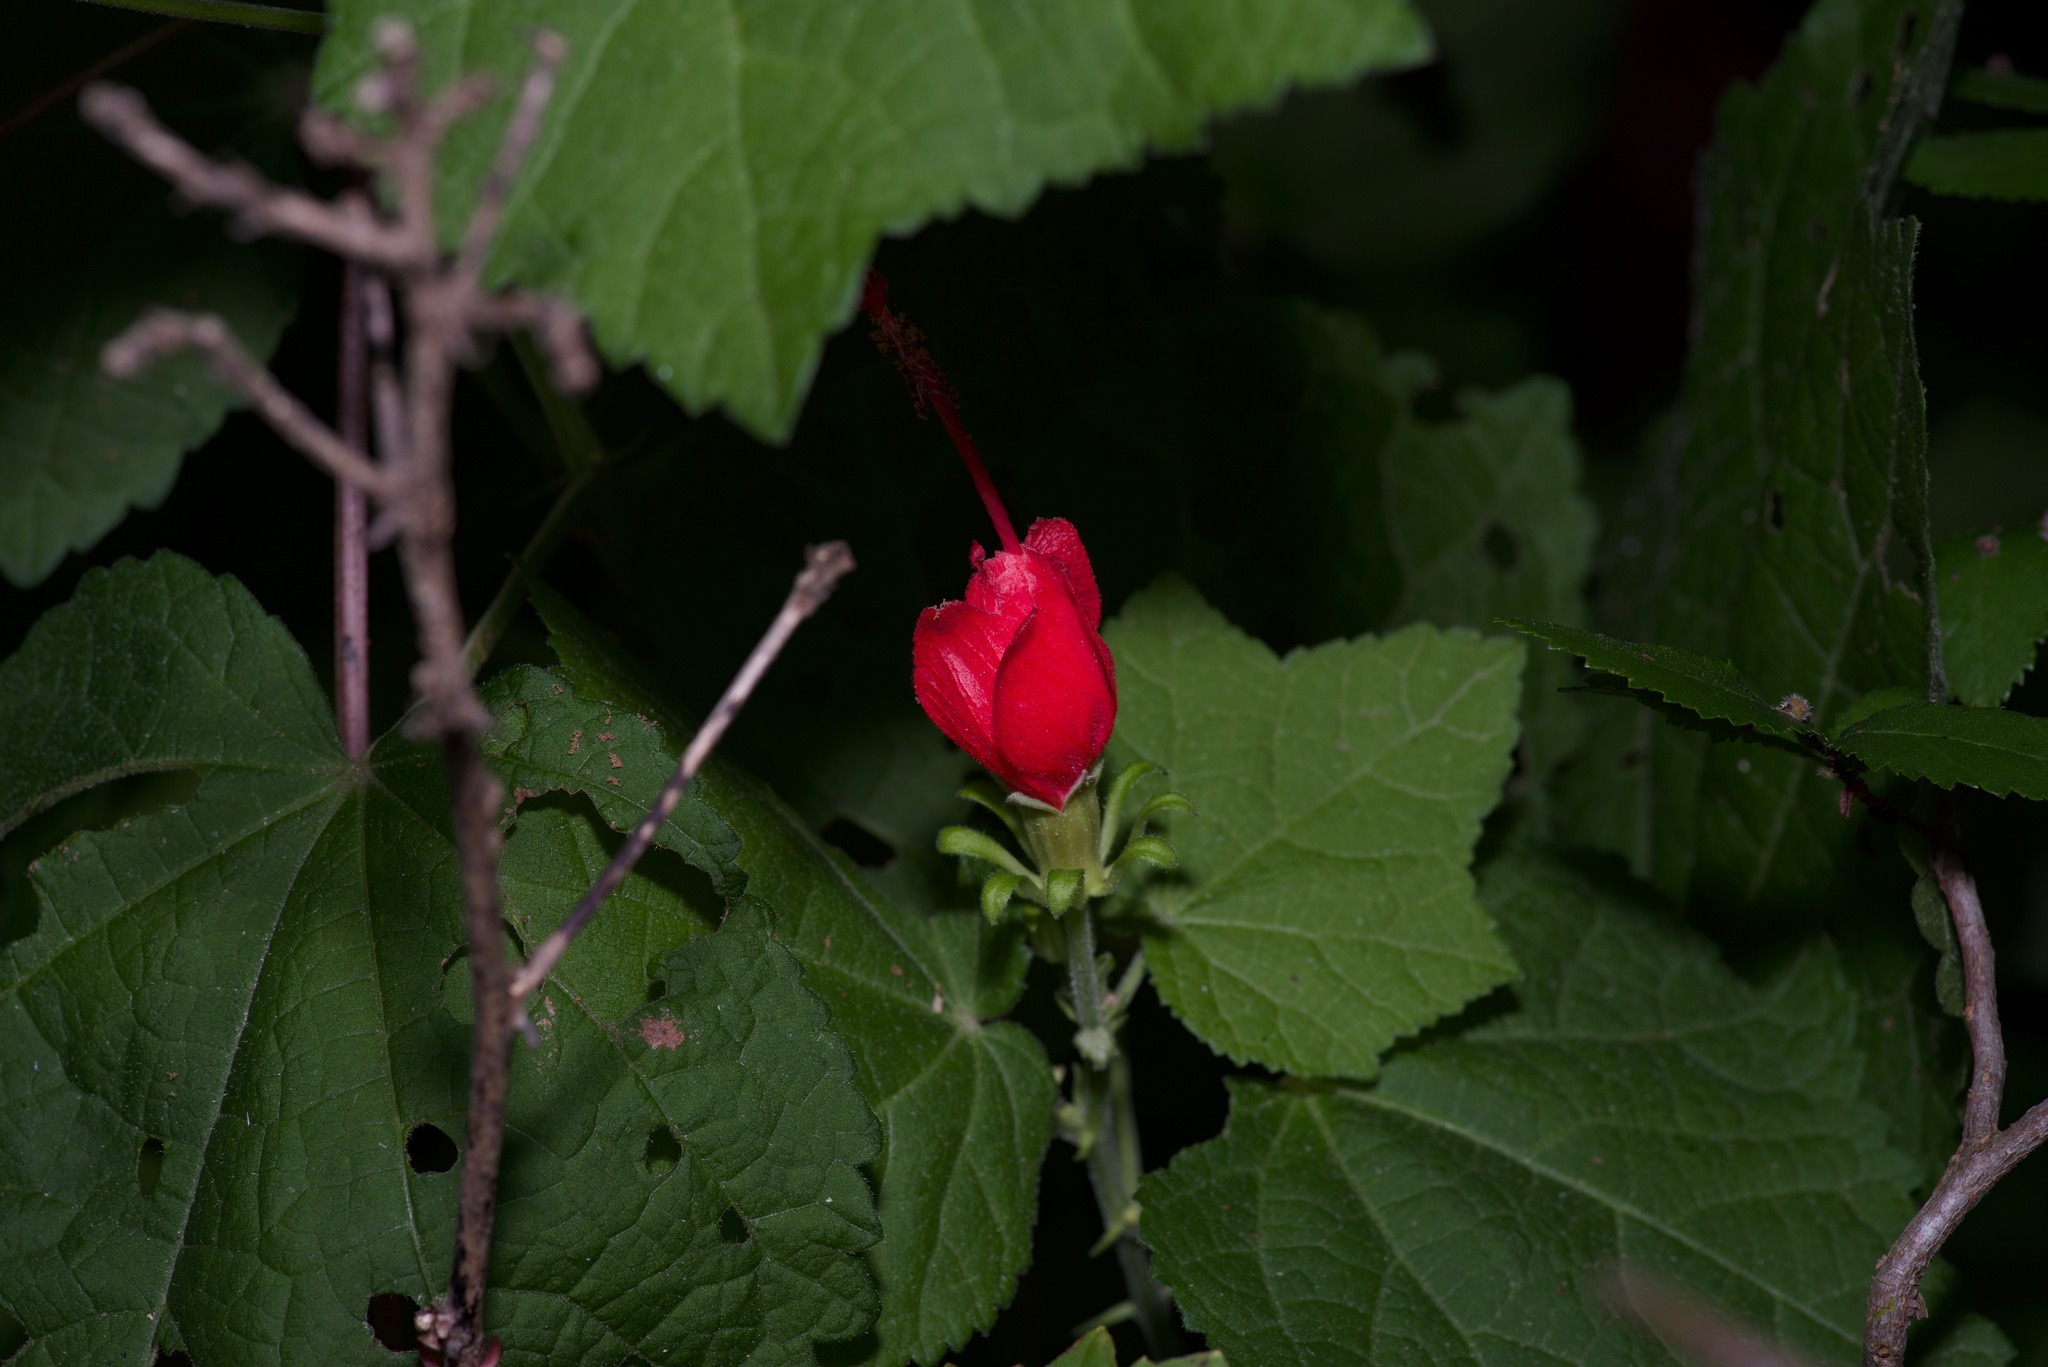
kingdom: Plantae
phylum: Tracheophyta
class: Magnoliopsida
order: Malvales
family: Malvaceae
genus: Malvaviscus
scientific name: Malvaviscus arboreus
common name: Wax mallow
